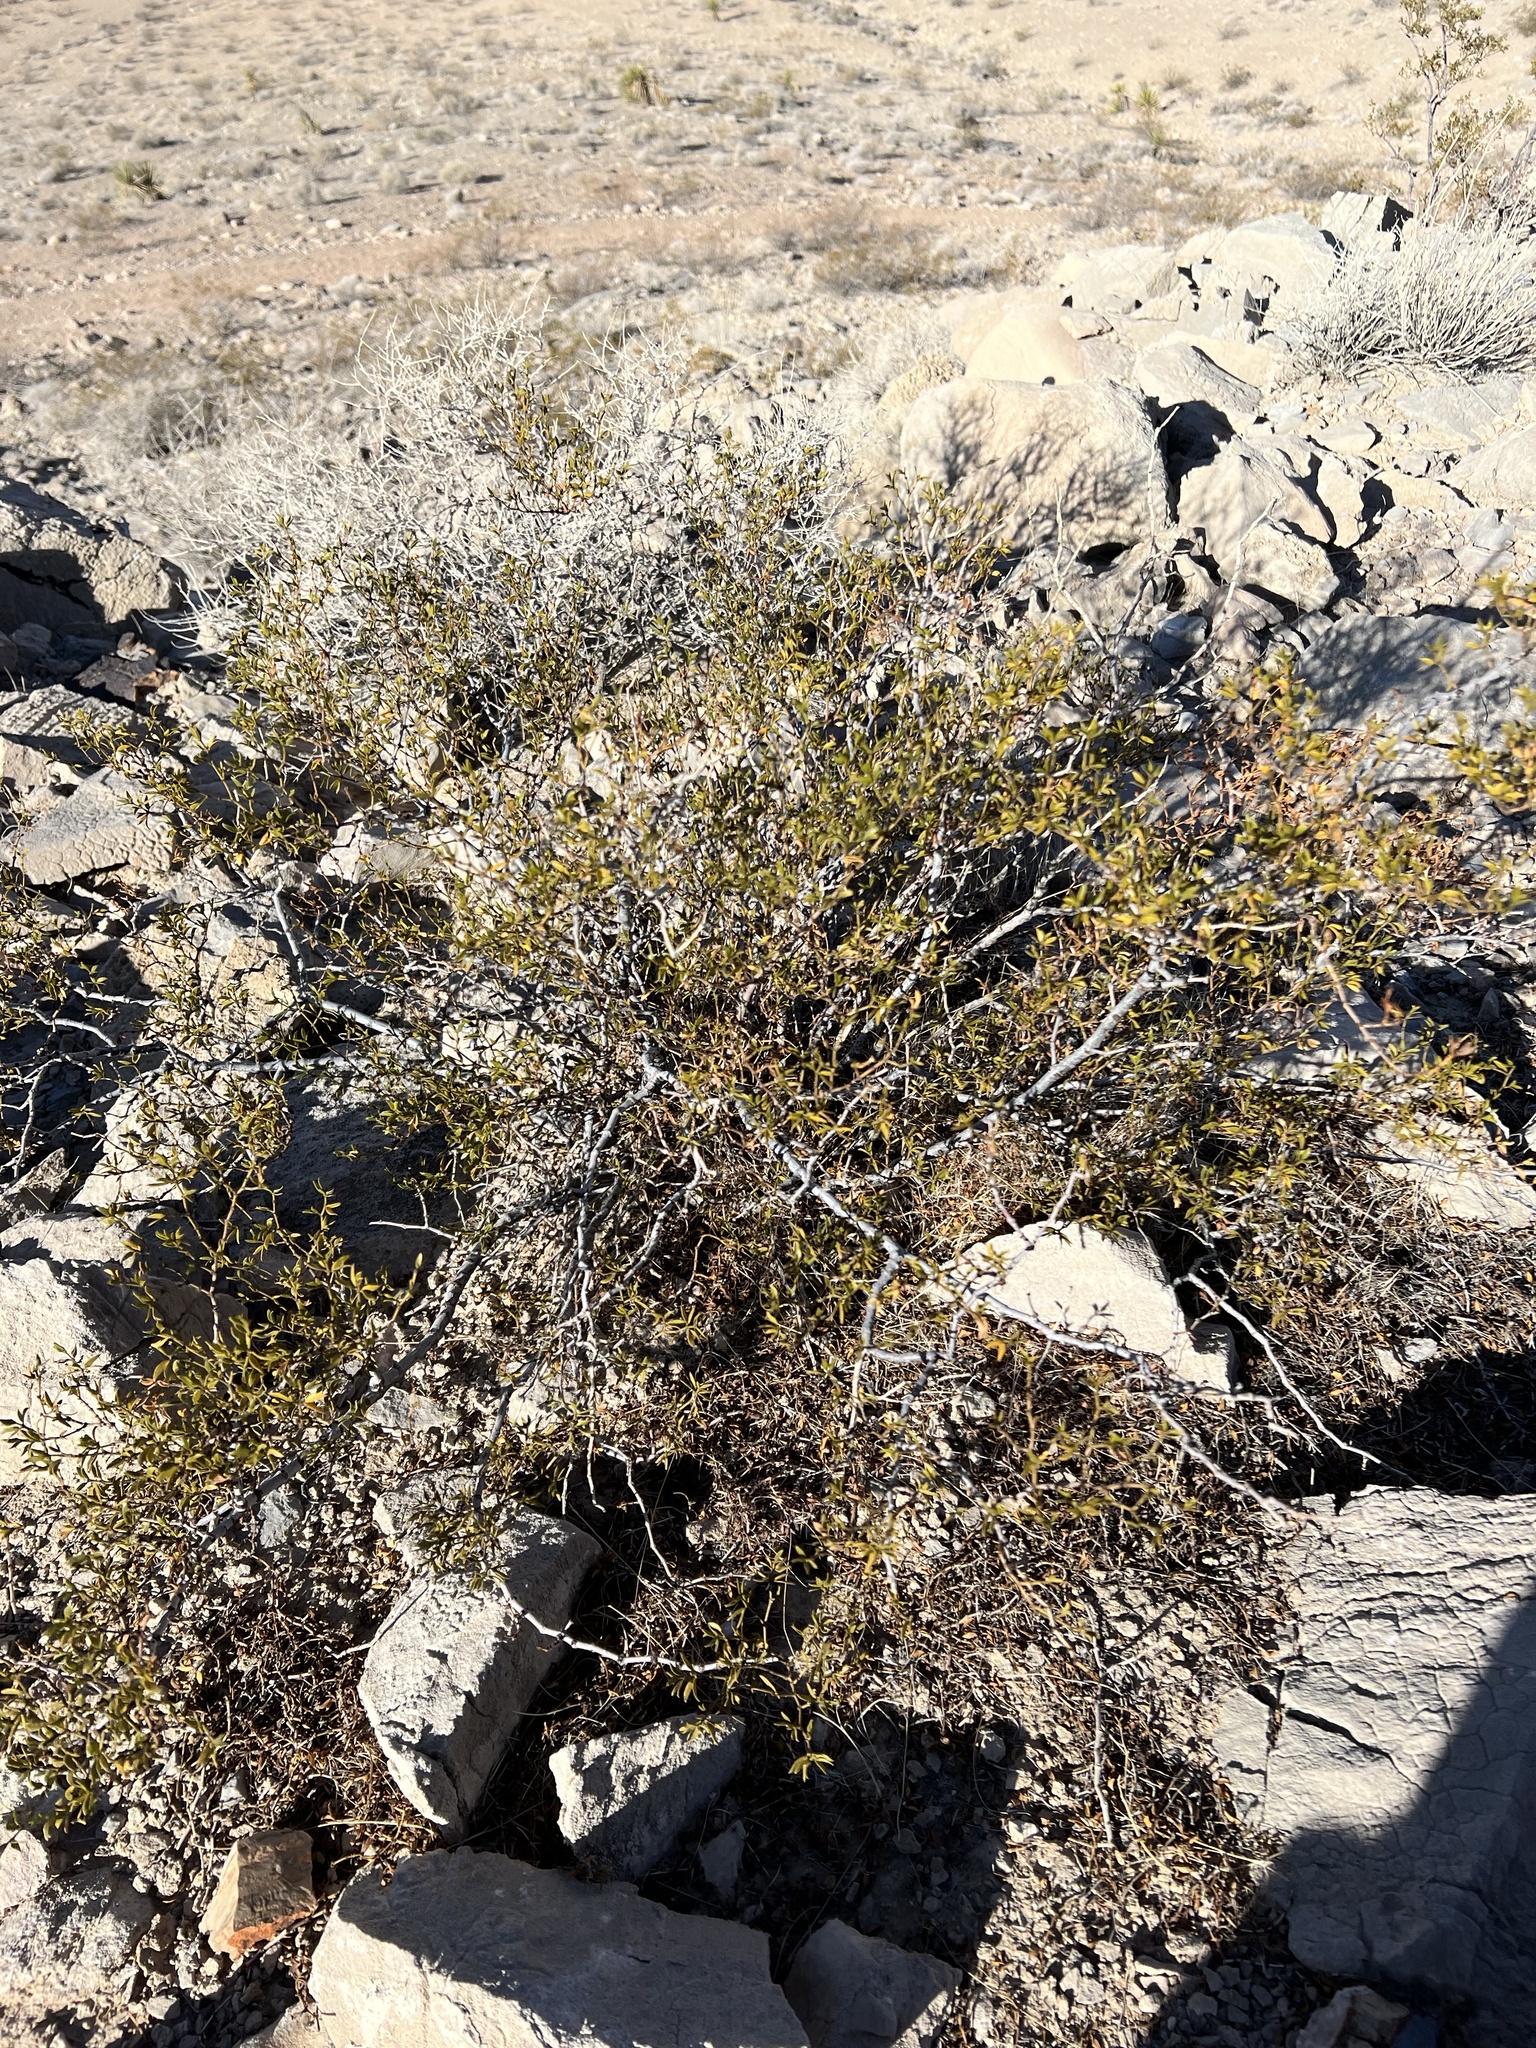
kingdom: Plantae
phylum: Tracheophyta
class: Magnoliopsida
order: Zygophyllales
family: Zygophyllaceae
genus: Larrea
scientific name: Larrea tridentata
